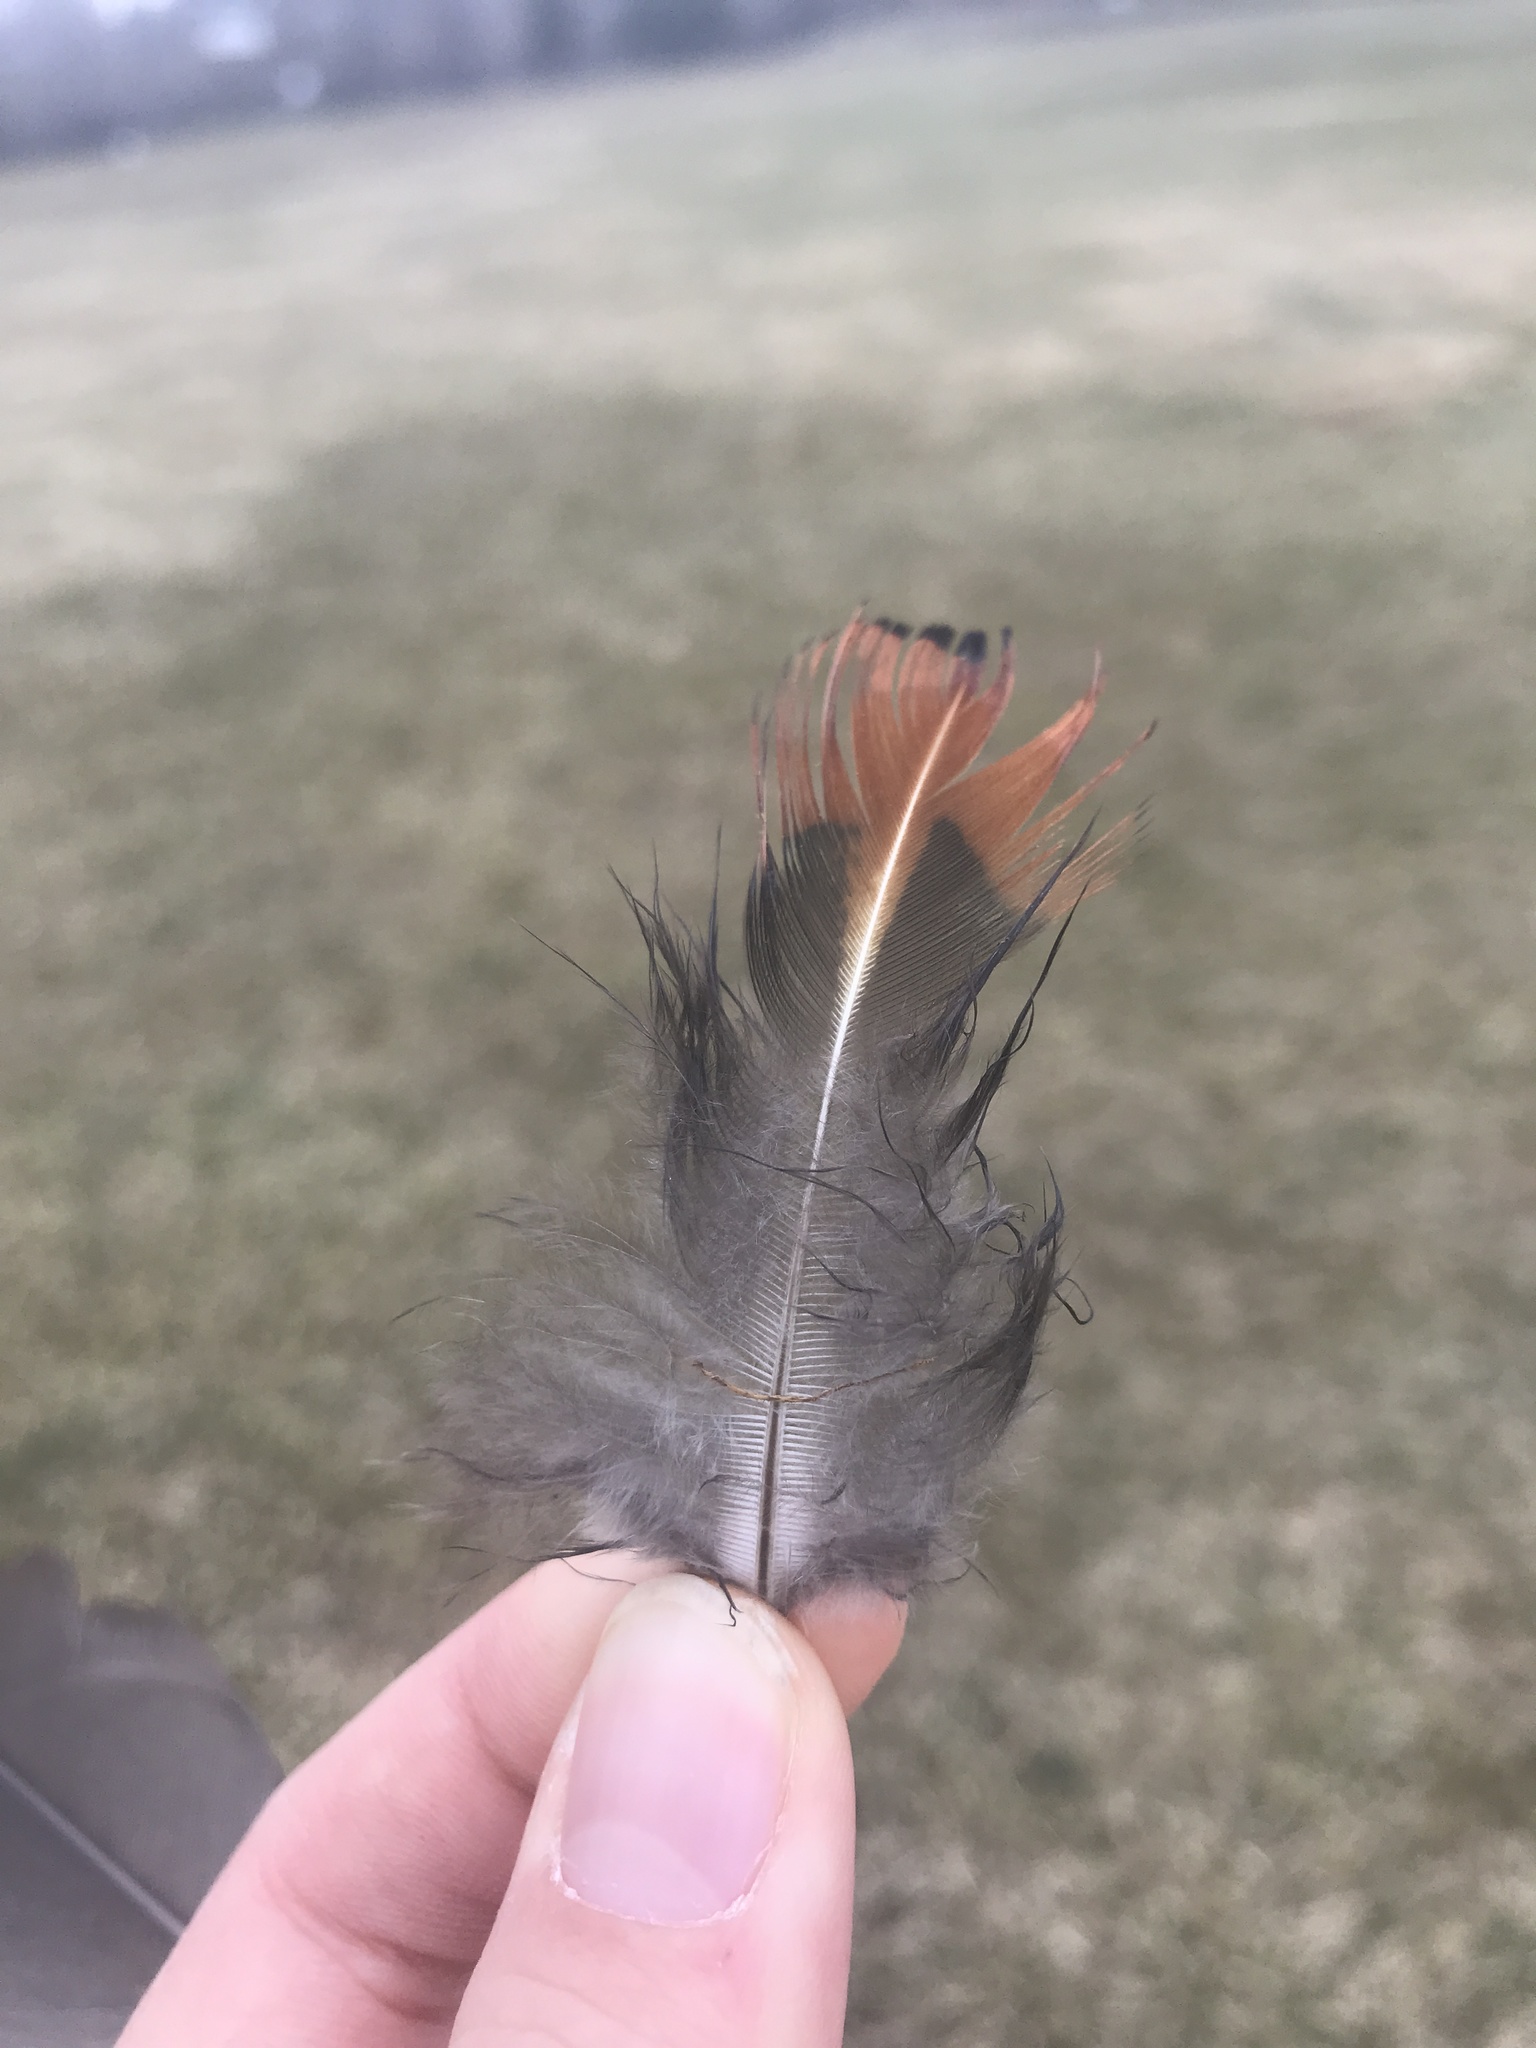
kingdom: Animalia
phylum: Chordata
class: Aves
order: Galliformes
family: Phasianidae
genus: Phasianus
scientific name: Phasianus colchicus
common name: Common pheasant
